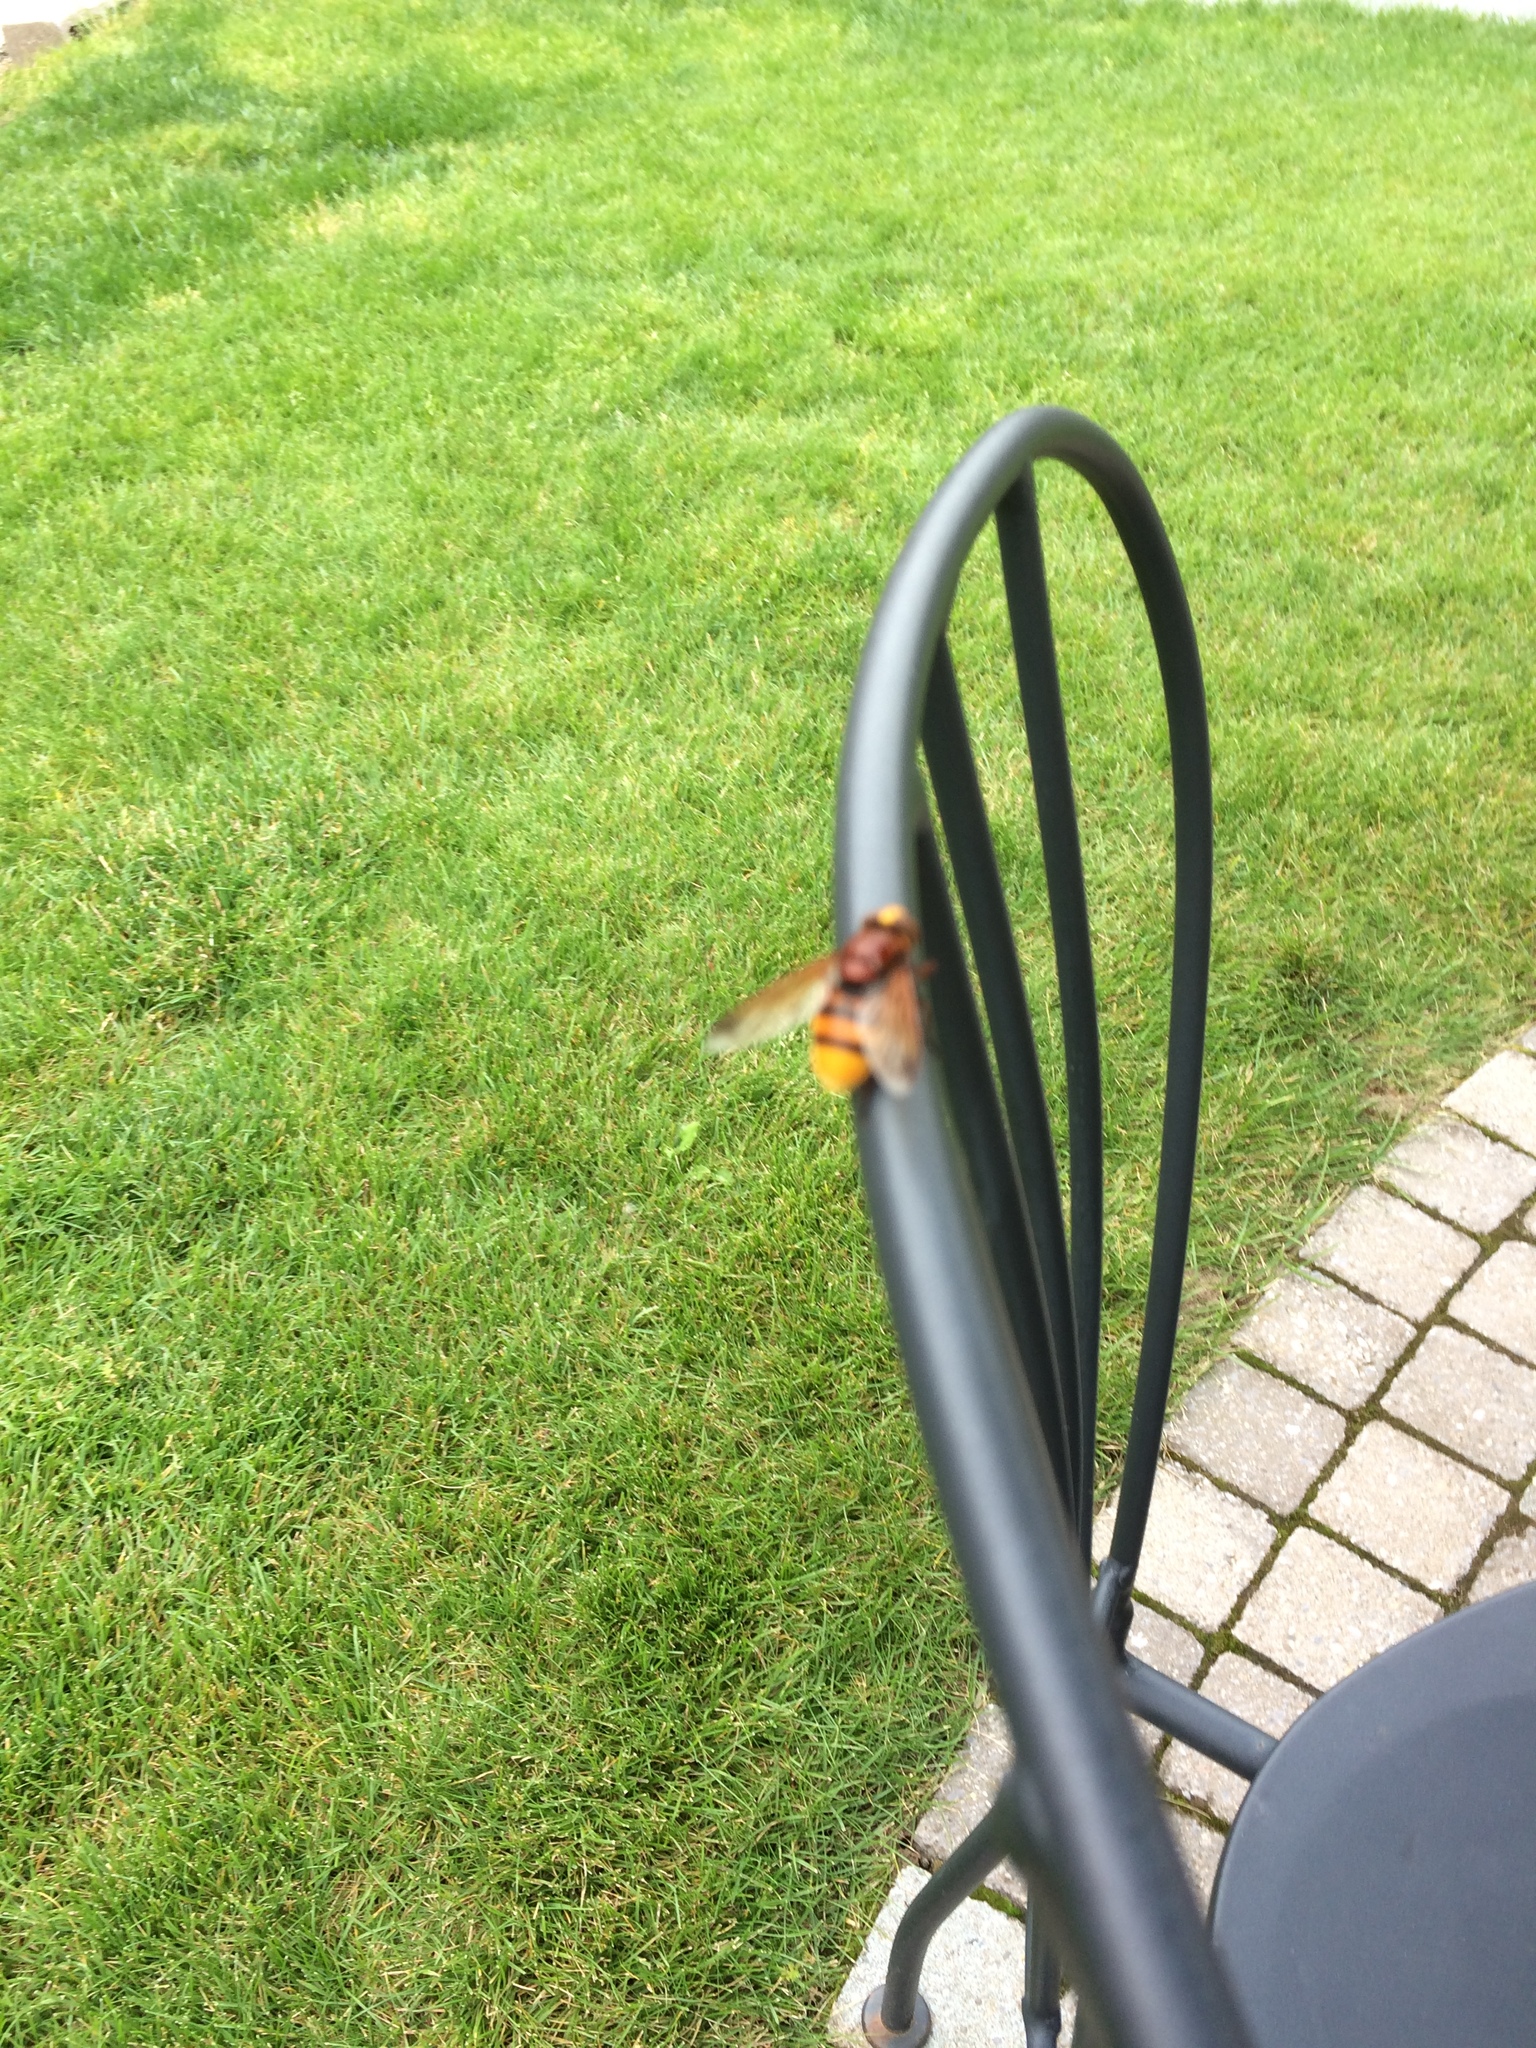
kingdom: Animalia
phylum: Arthropoda
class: Insecta
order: Diptera
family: Syrphidae
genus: Volucella
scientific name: Volucella zonaria
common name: Hornet hoverfly
